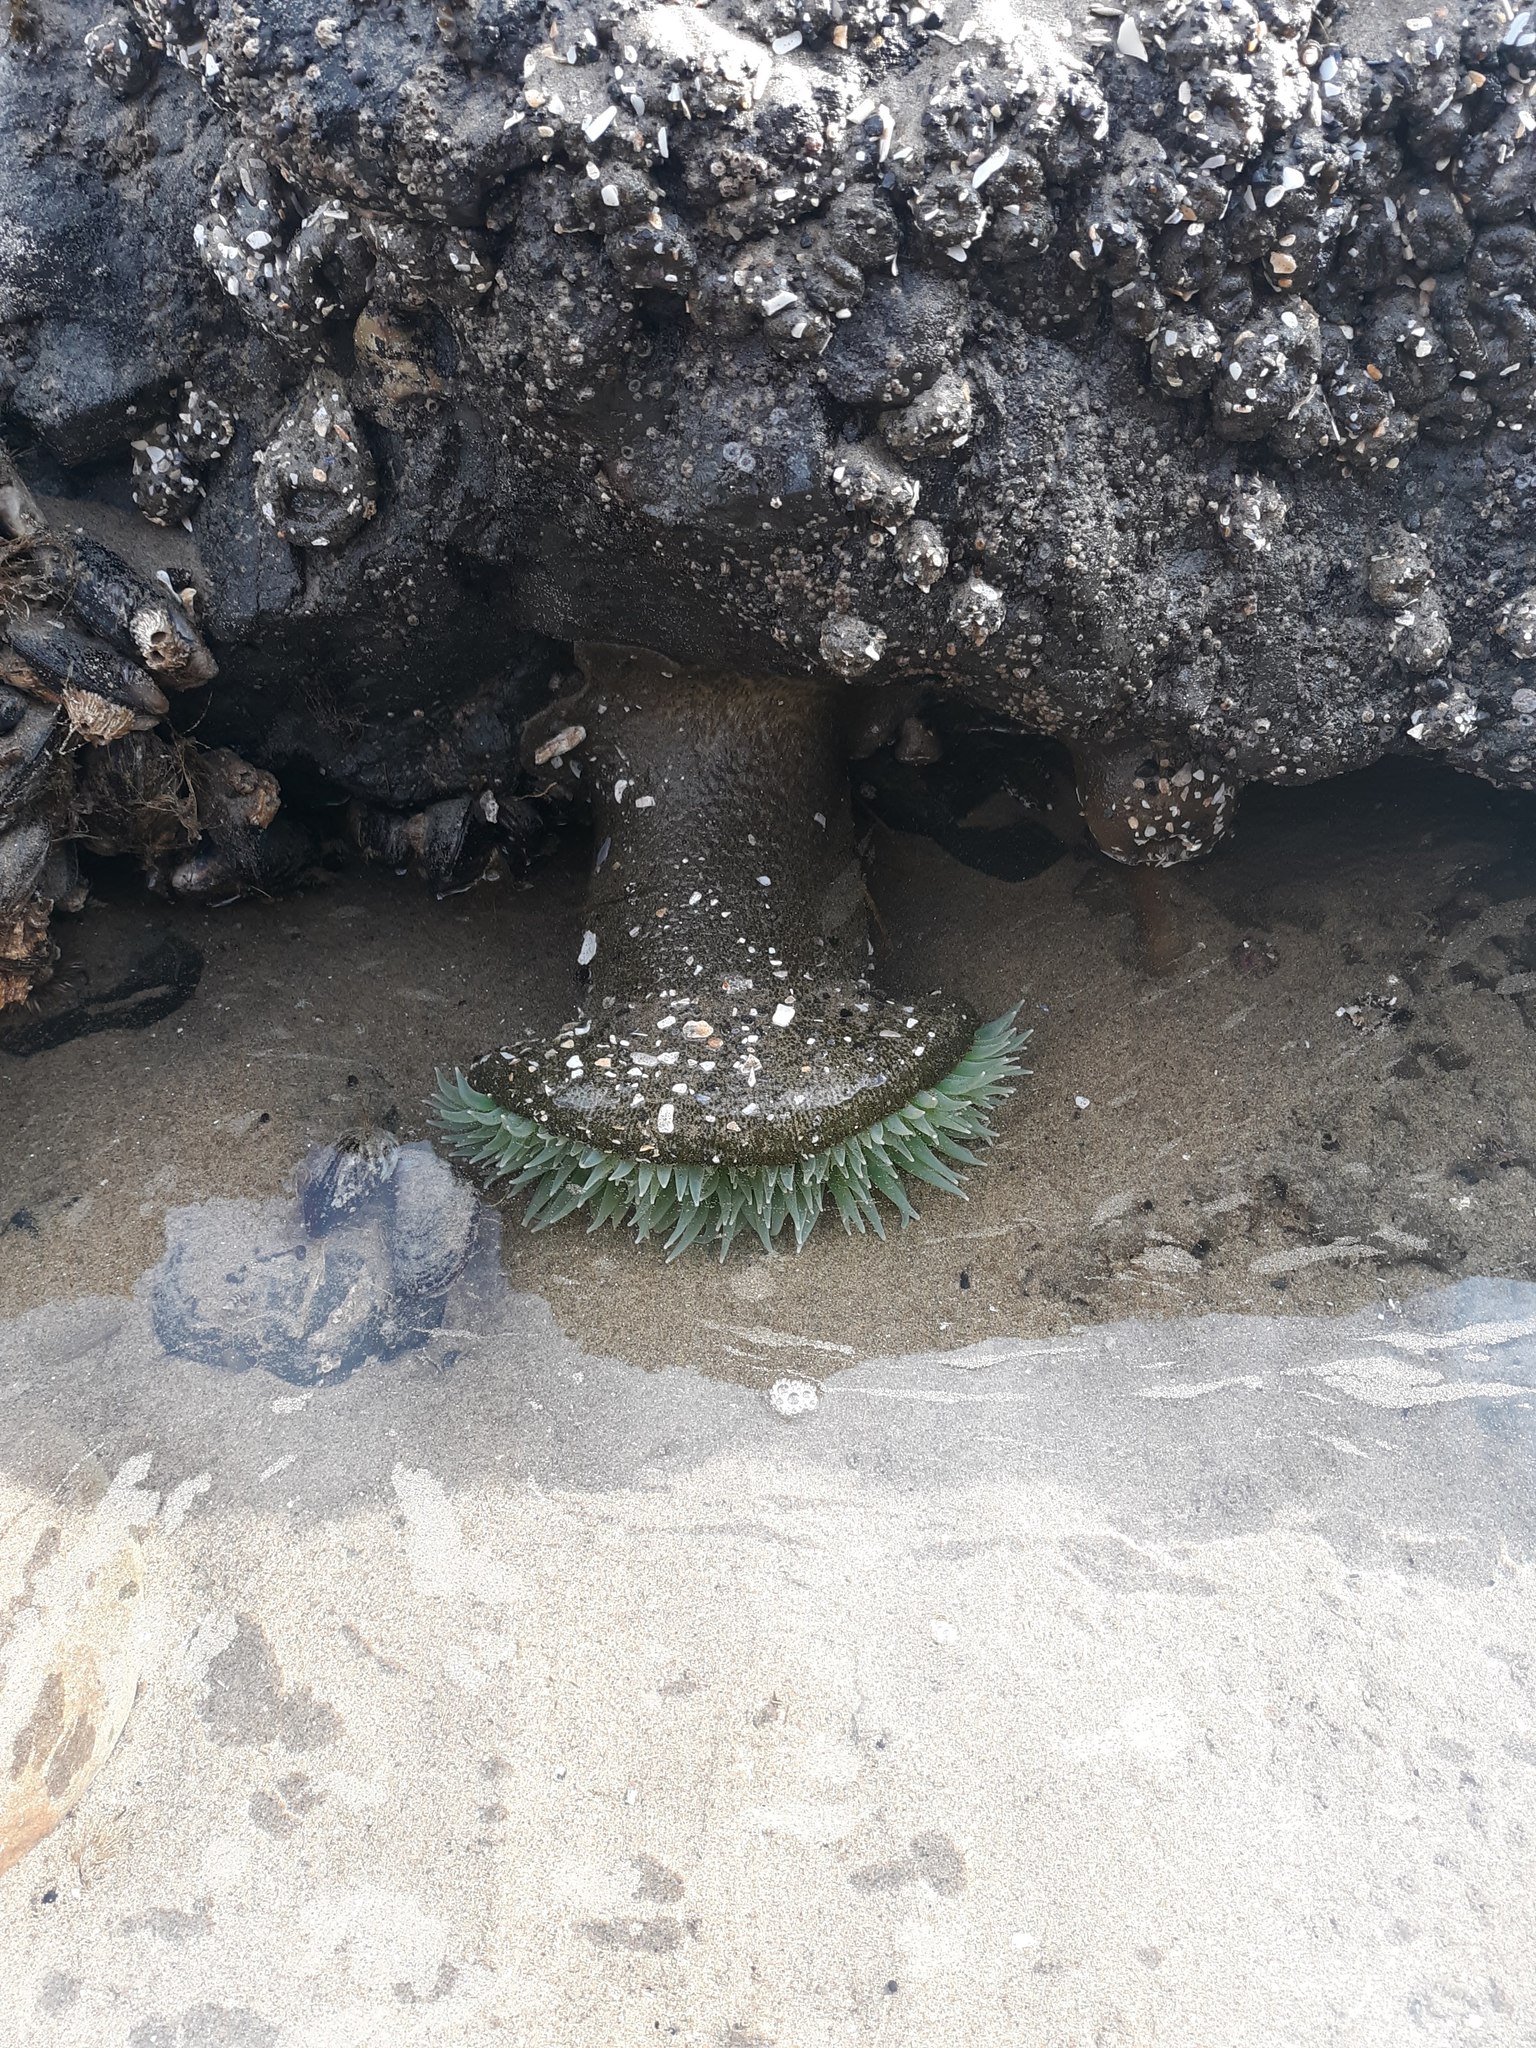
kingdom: Animalia
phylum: Cnidaria
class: Anthozoa
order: Actiniaria
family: Actiniidae
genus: Anthopleura
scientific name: Anthopleura xanthogrammica
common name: Giant green anemone
